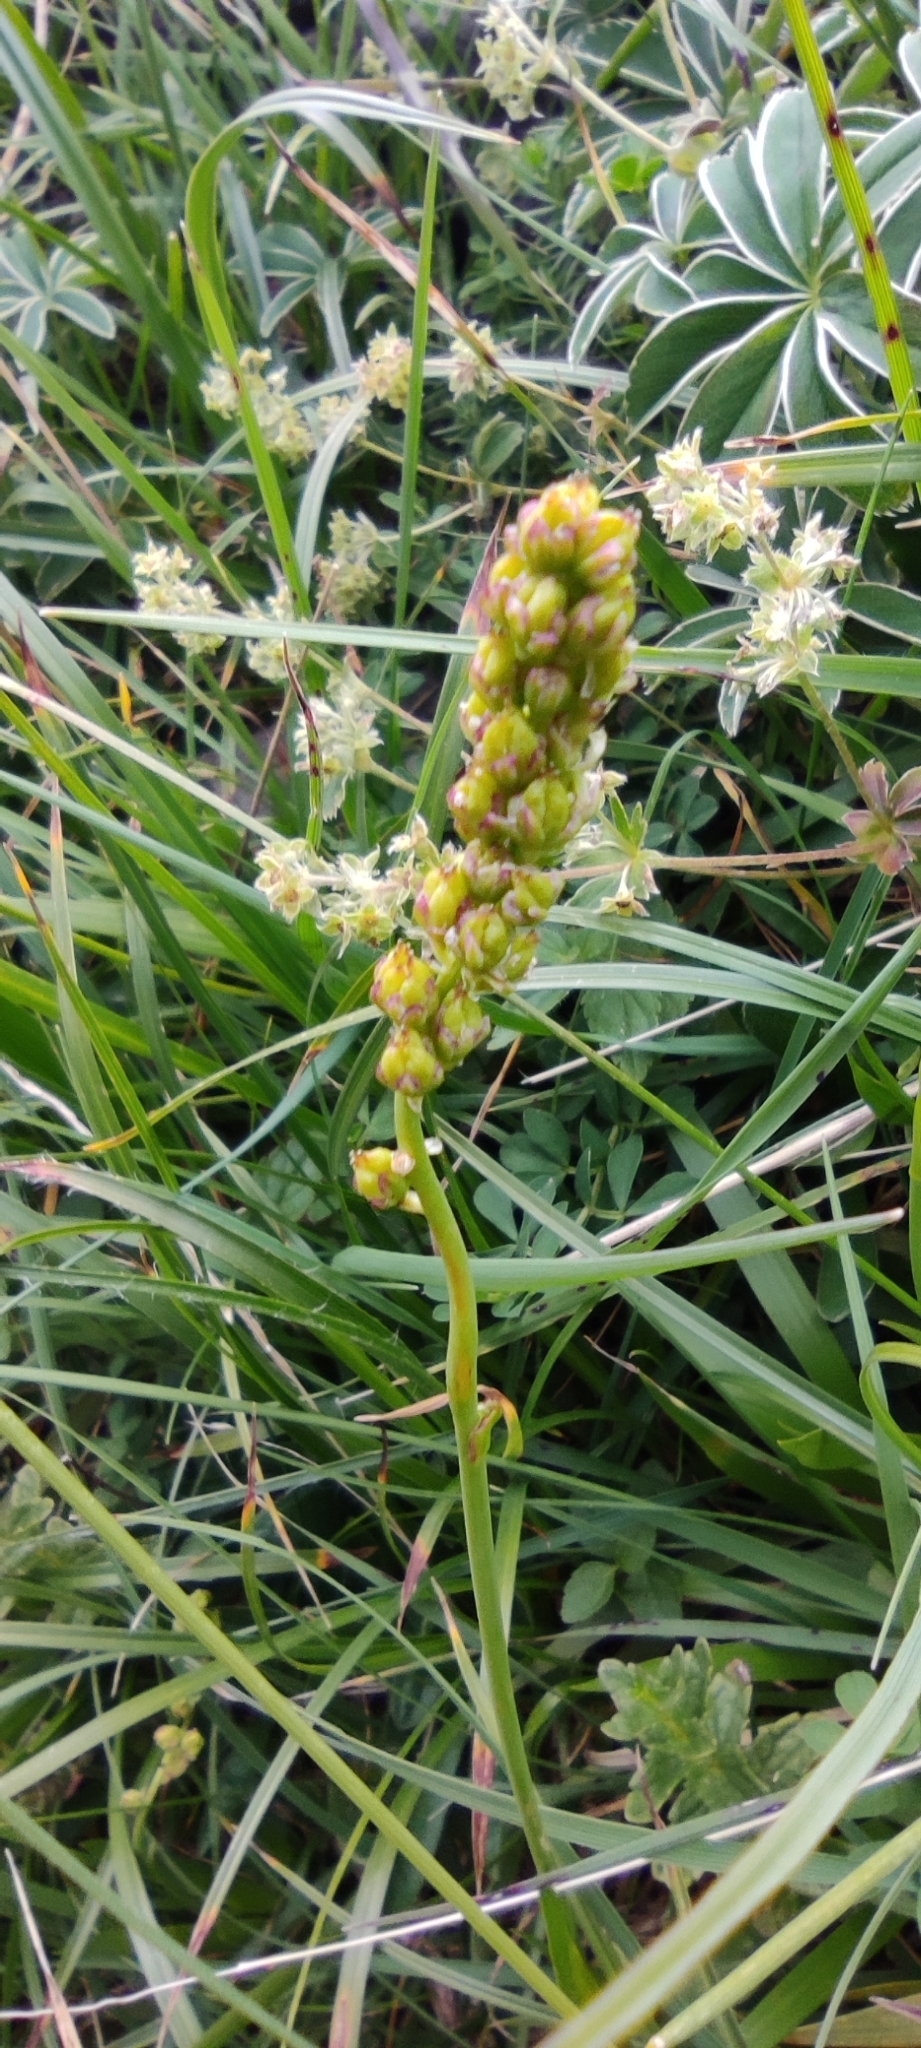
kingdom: Plantae
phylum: Tracheophyta
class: Liliopsida
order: Alismatales
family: Tofieldiaceae
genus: Tofieldia
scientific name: Tofieldia calyculata
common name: German-asphodel
